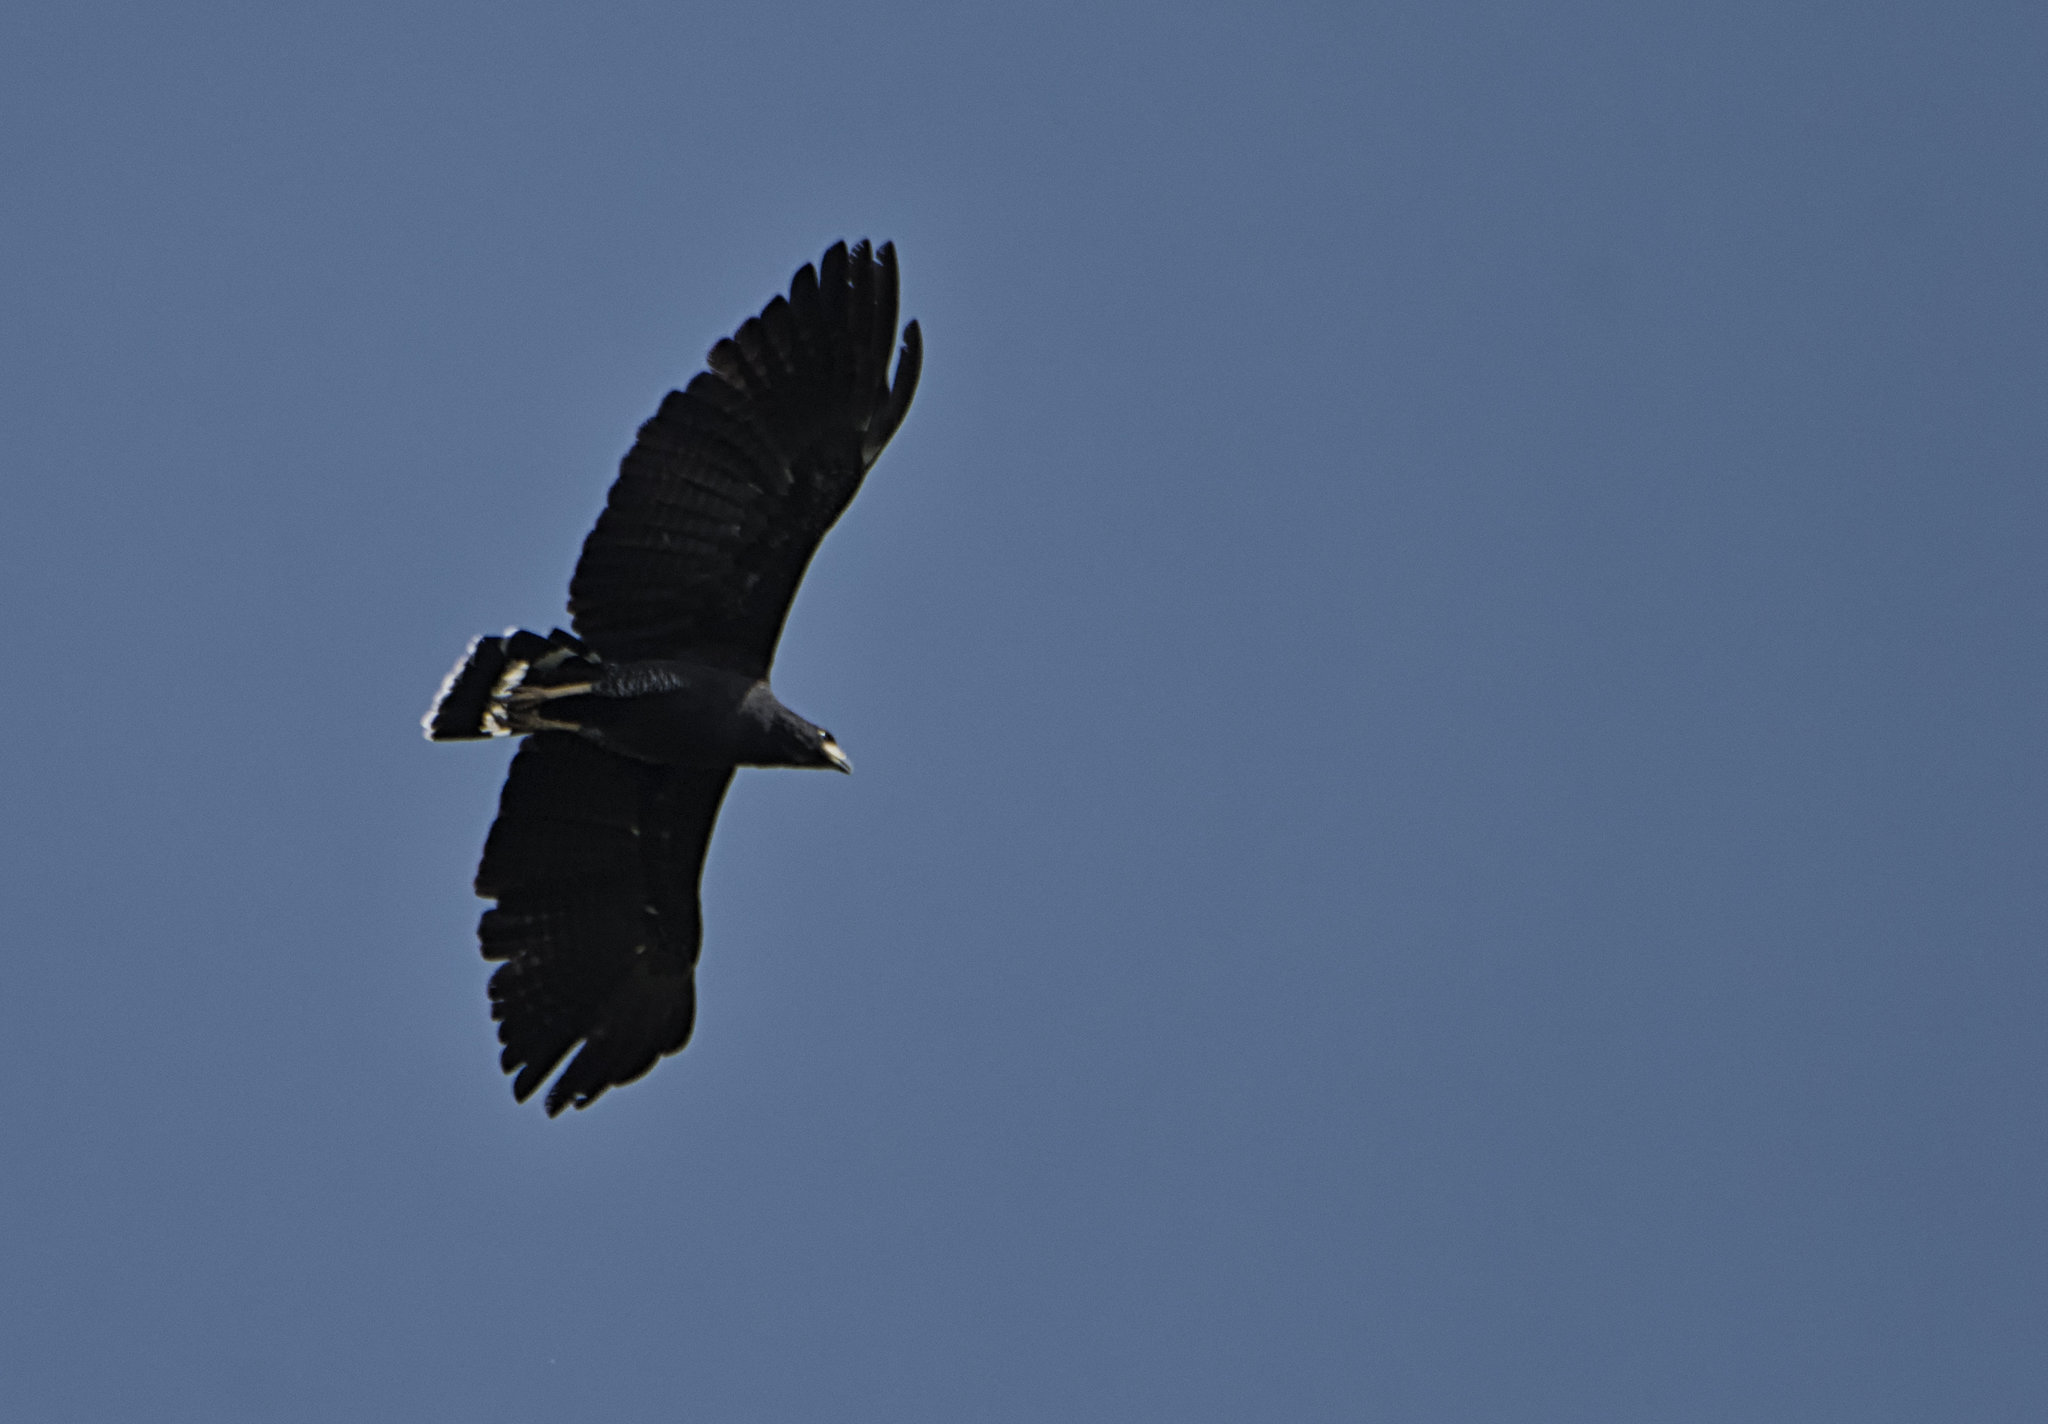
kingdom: Animalia
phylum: Chordata
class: Aves
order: Accipitriformes
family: Accipitridae
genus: Buteogallus
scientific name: Buteogallus anthracinus
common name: Common black hawk
